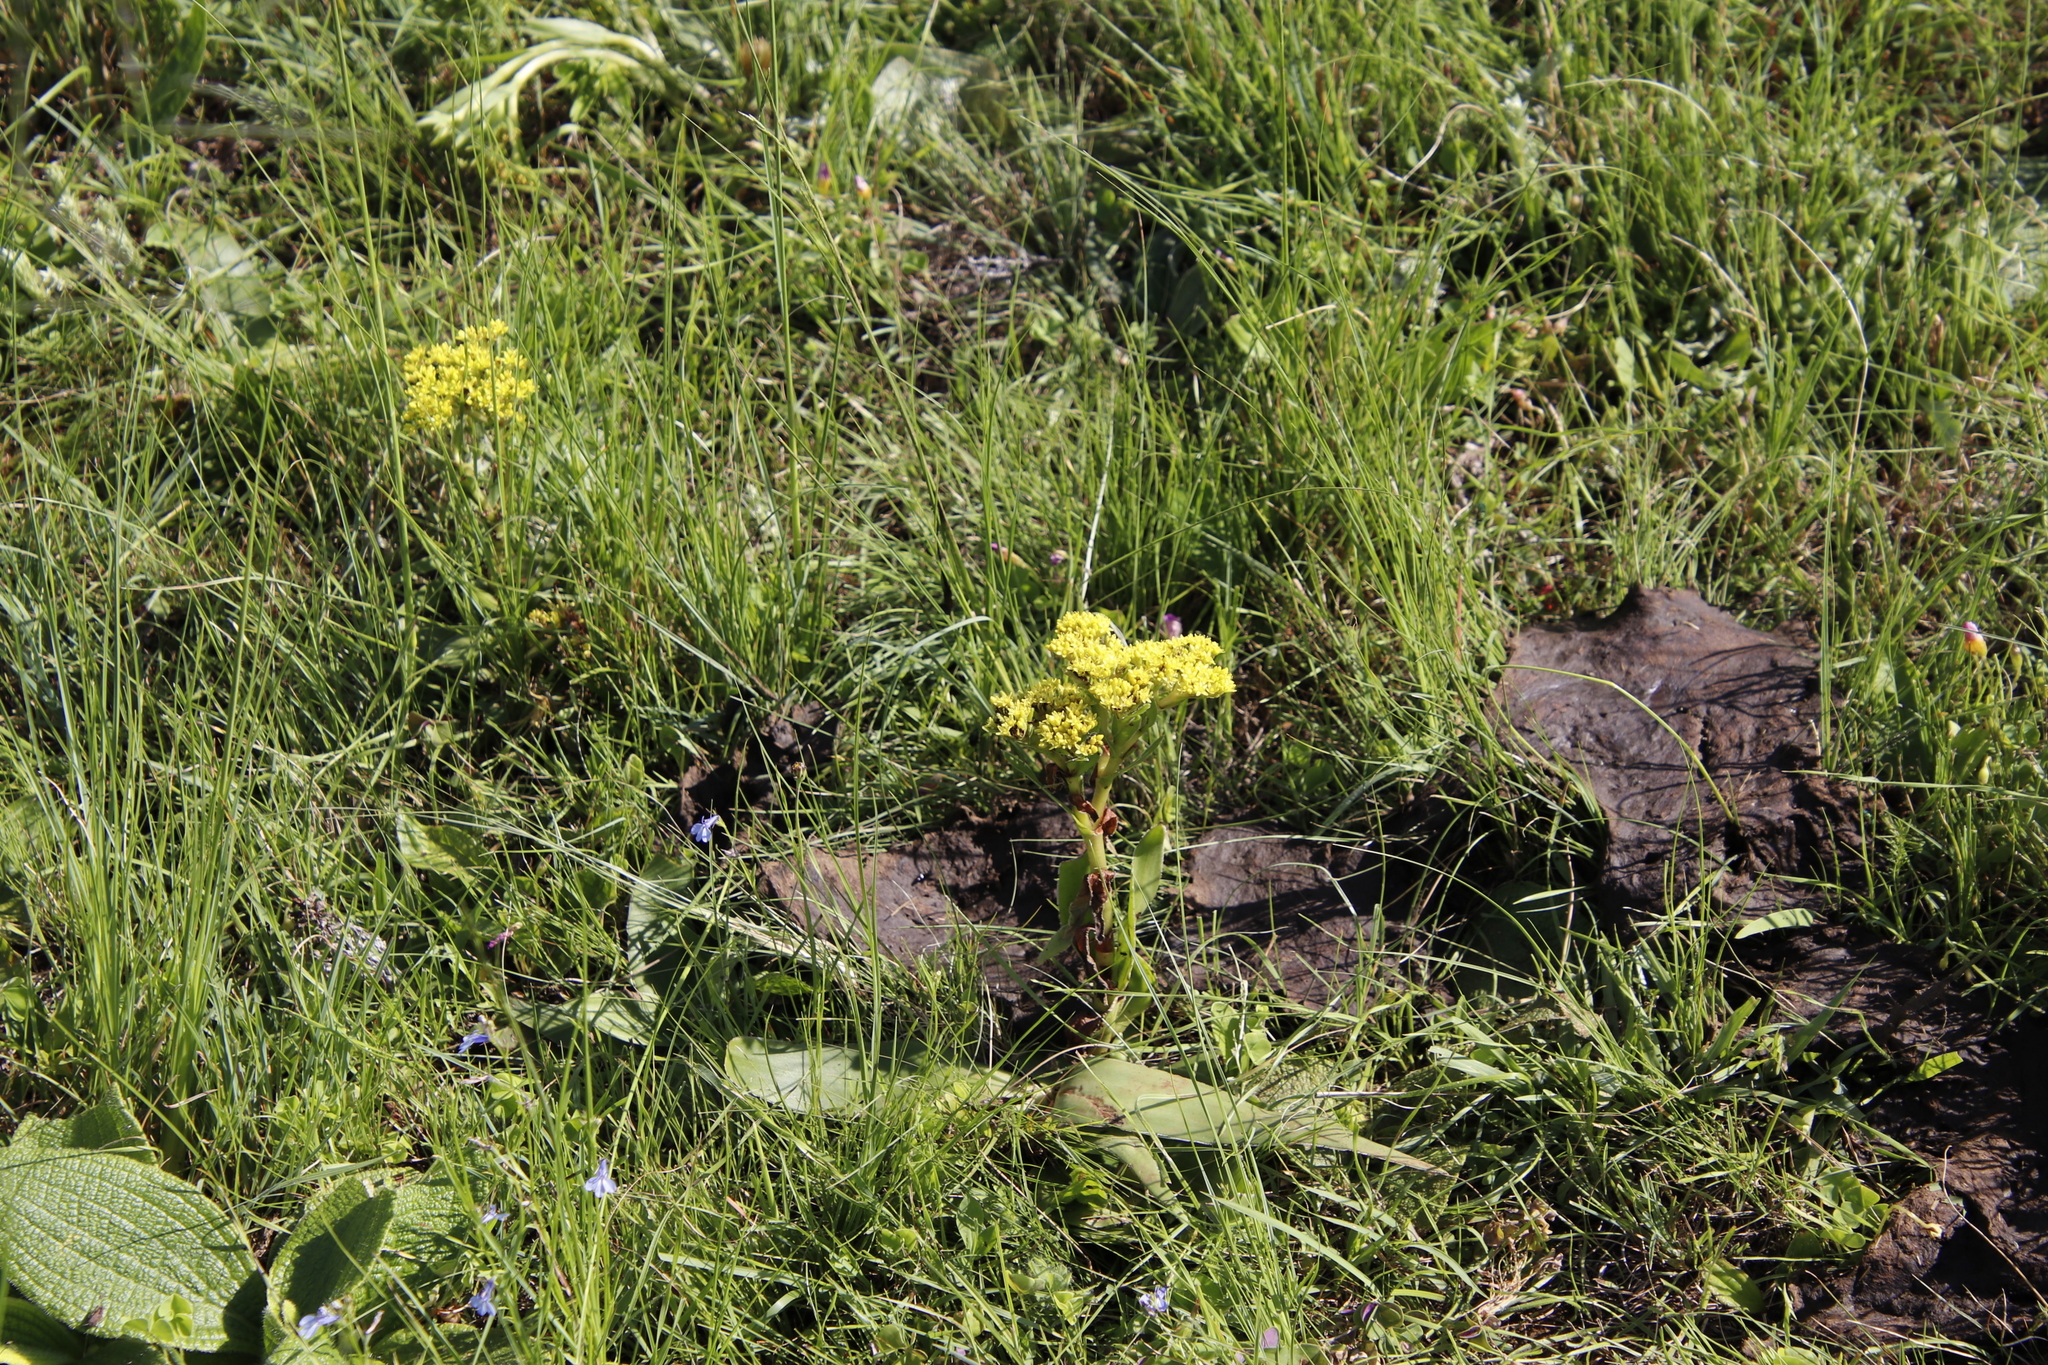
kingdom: Plantae
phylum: Tracheophyta
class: Magnoliopsida
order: Saxifragales
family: Crassulaceae
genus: Crassula
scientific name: Crassula vaginata
